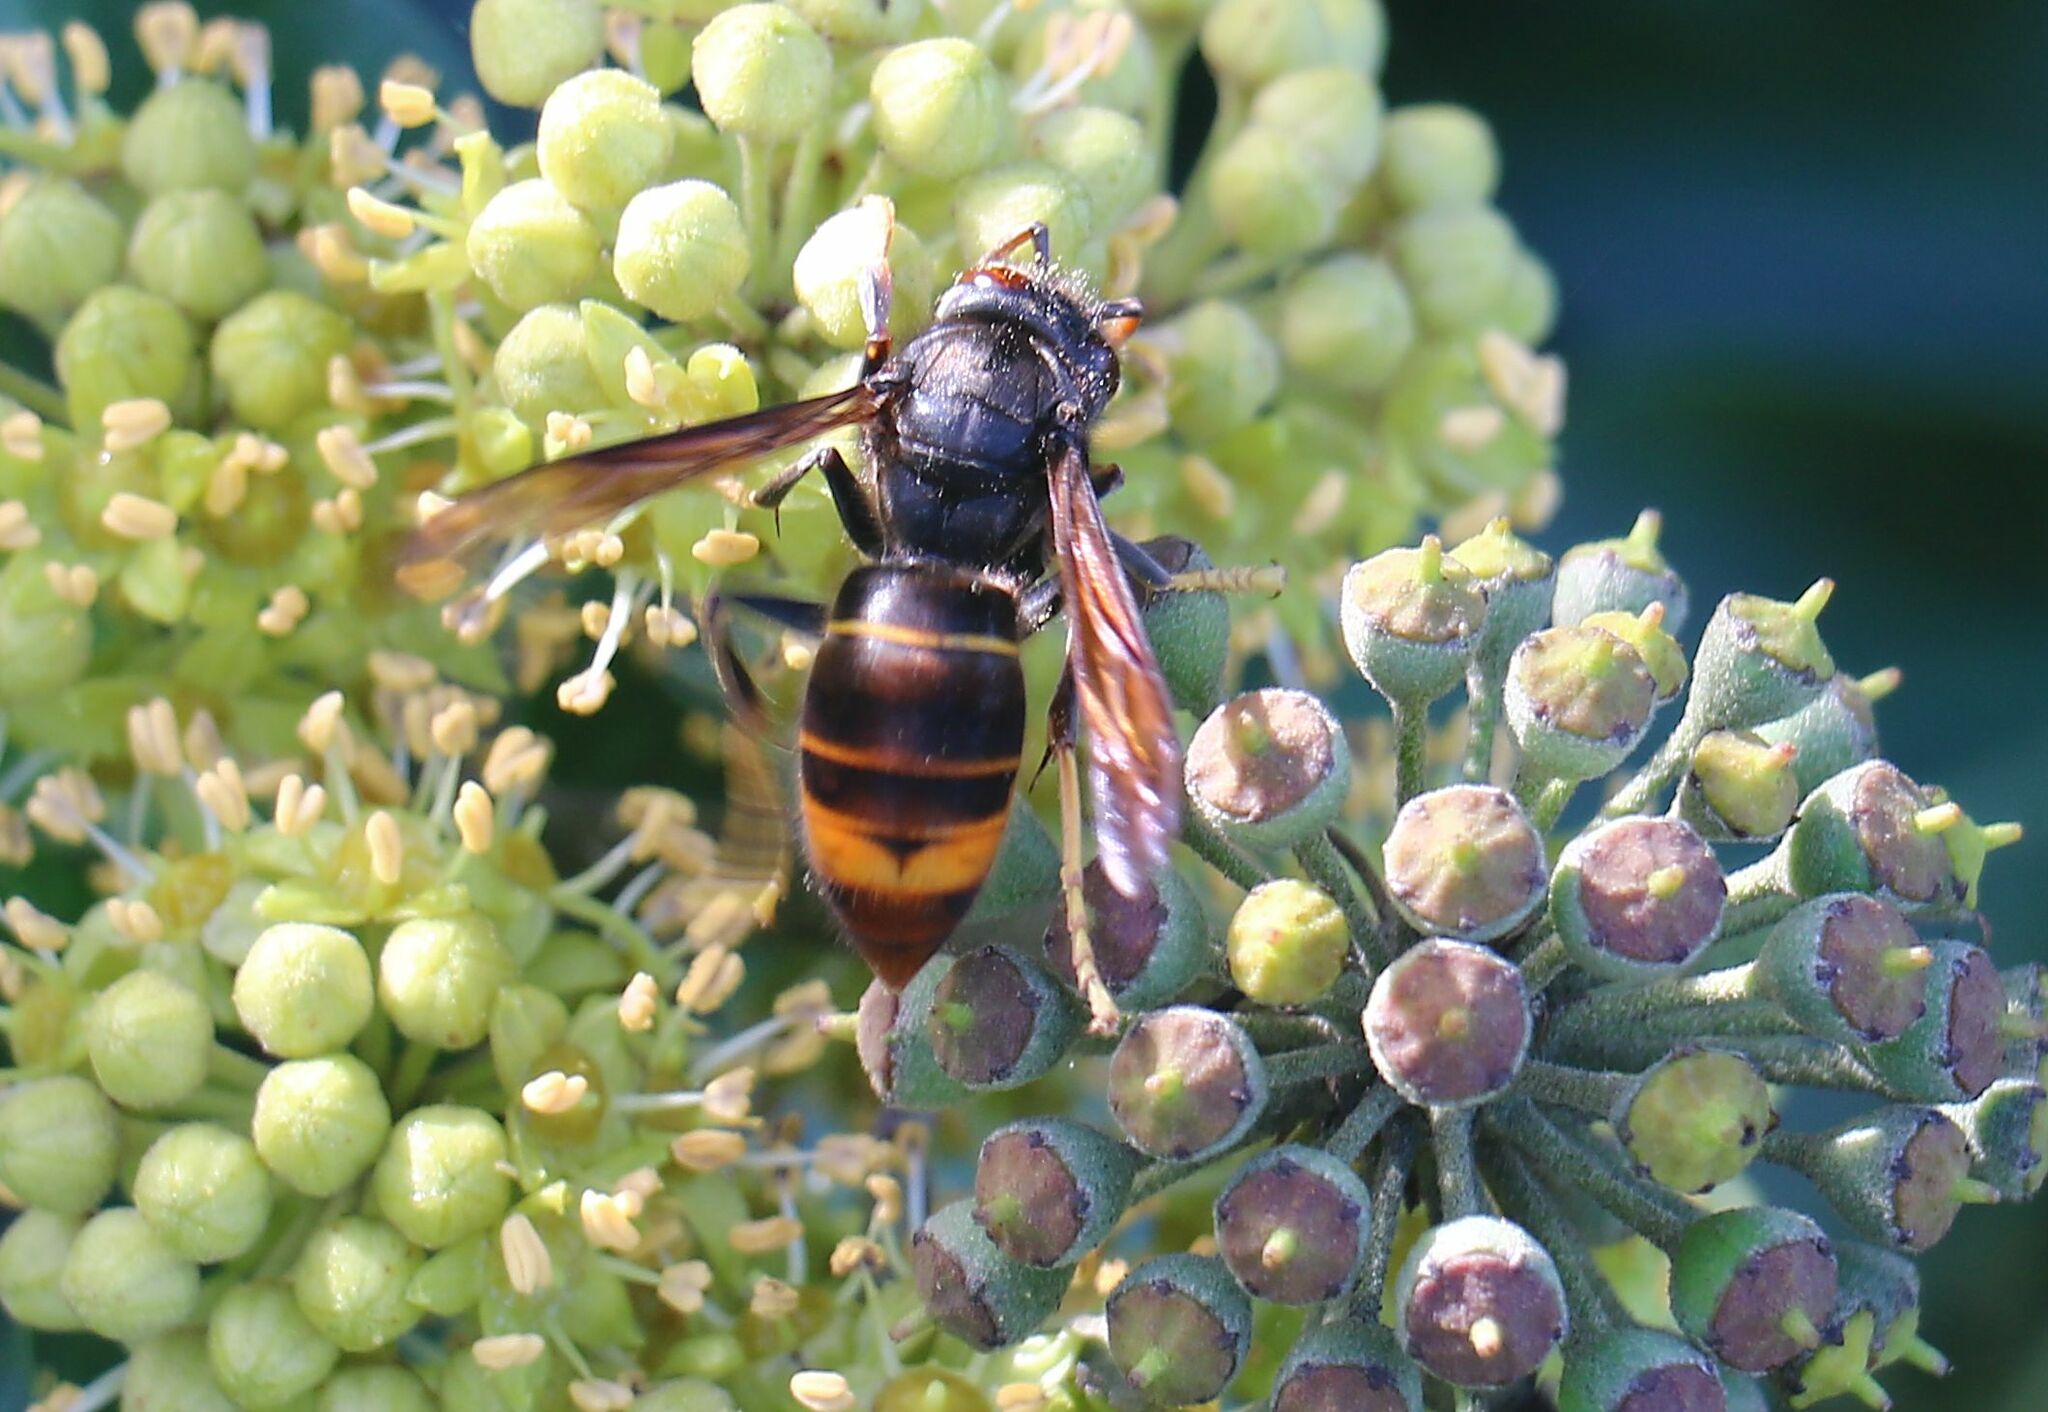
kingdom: Animalia
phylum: Arthropoda
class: Insecta
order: Hymenoptera
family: Vespidae
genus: Vespa
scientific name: Vespa velutina
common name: Asian hornet
